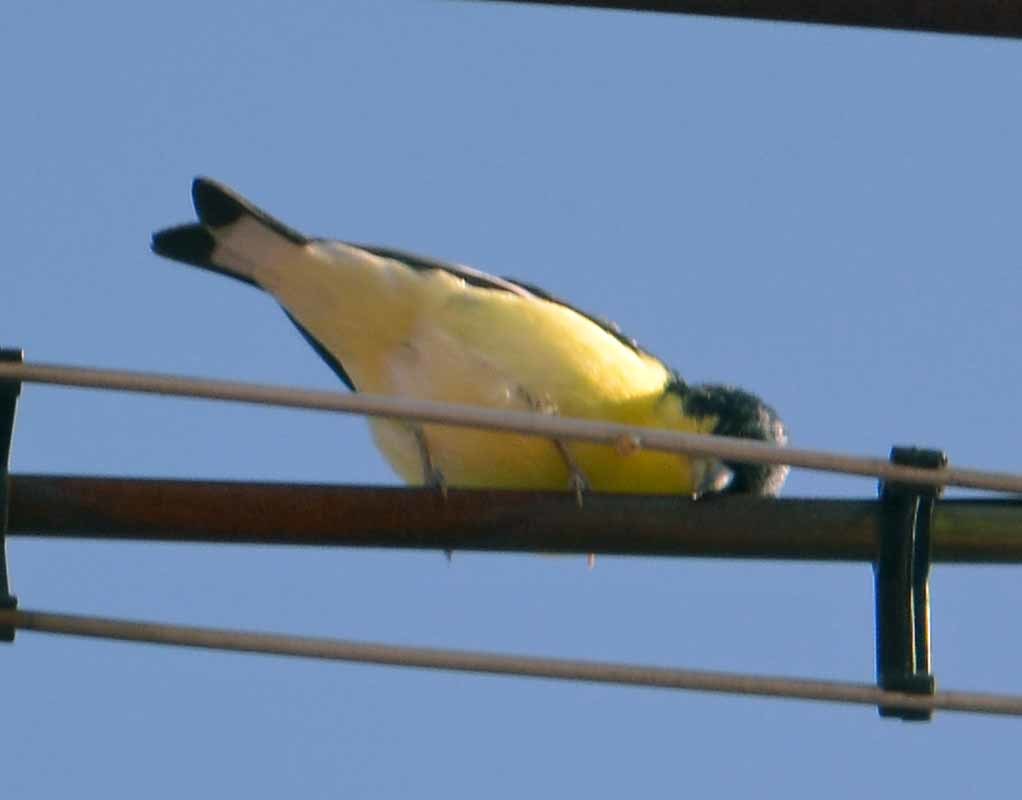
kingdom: Animalia
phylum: Chordata
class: Aves
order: Passeriformes
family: Fringillidae
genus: Spinus
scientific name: Spinus psaltria
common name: Lesser goldfinch
